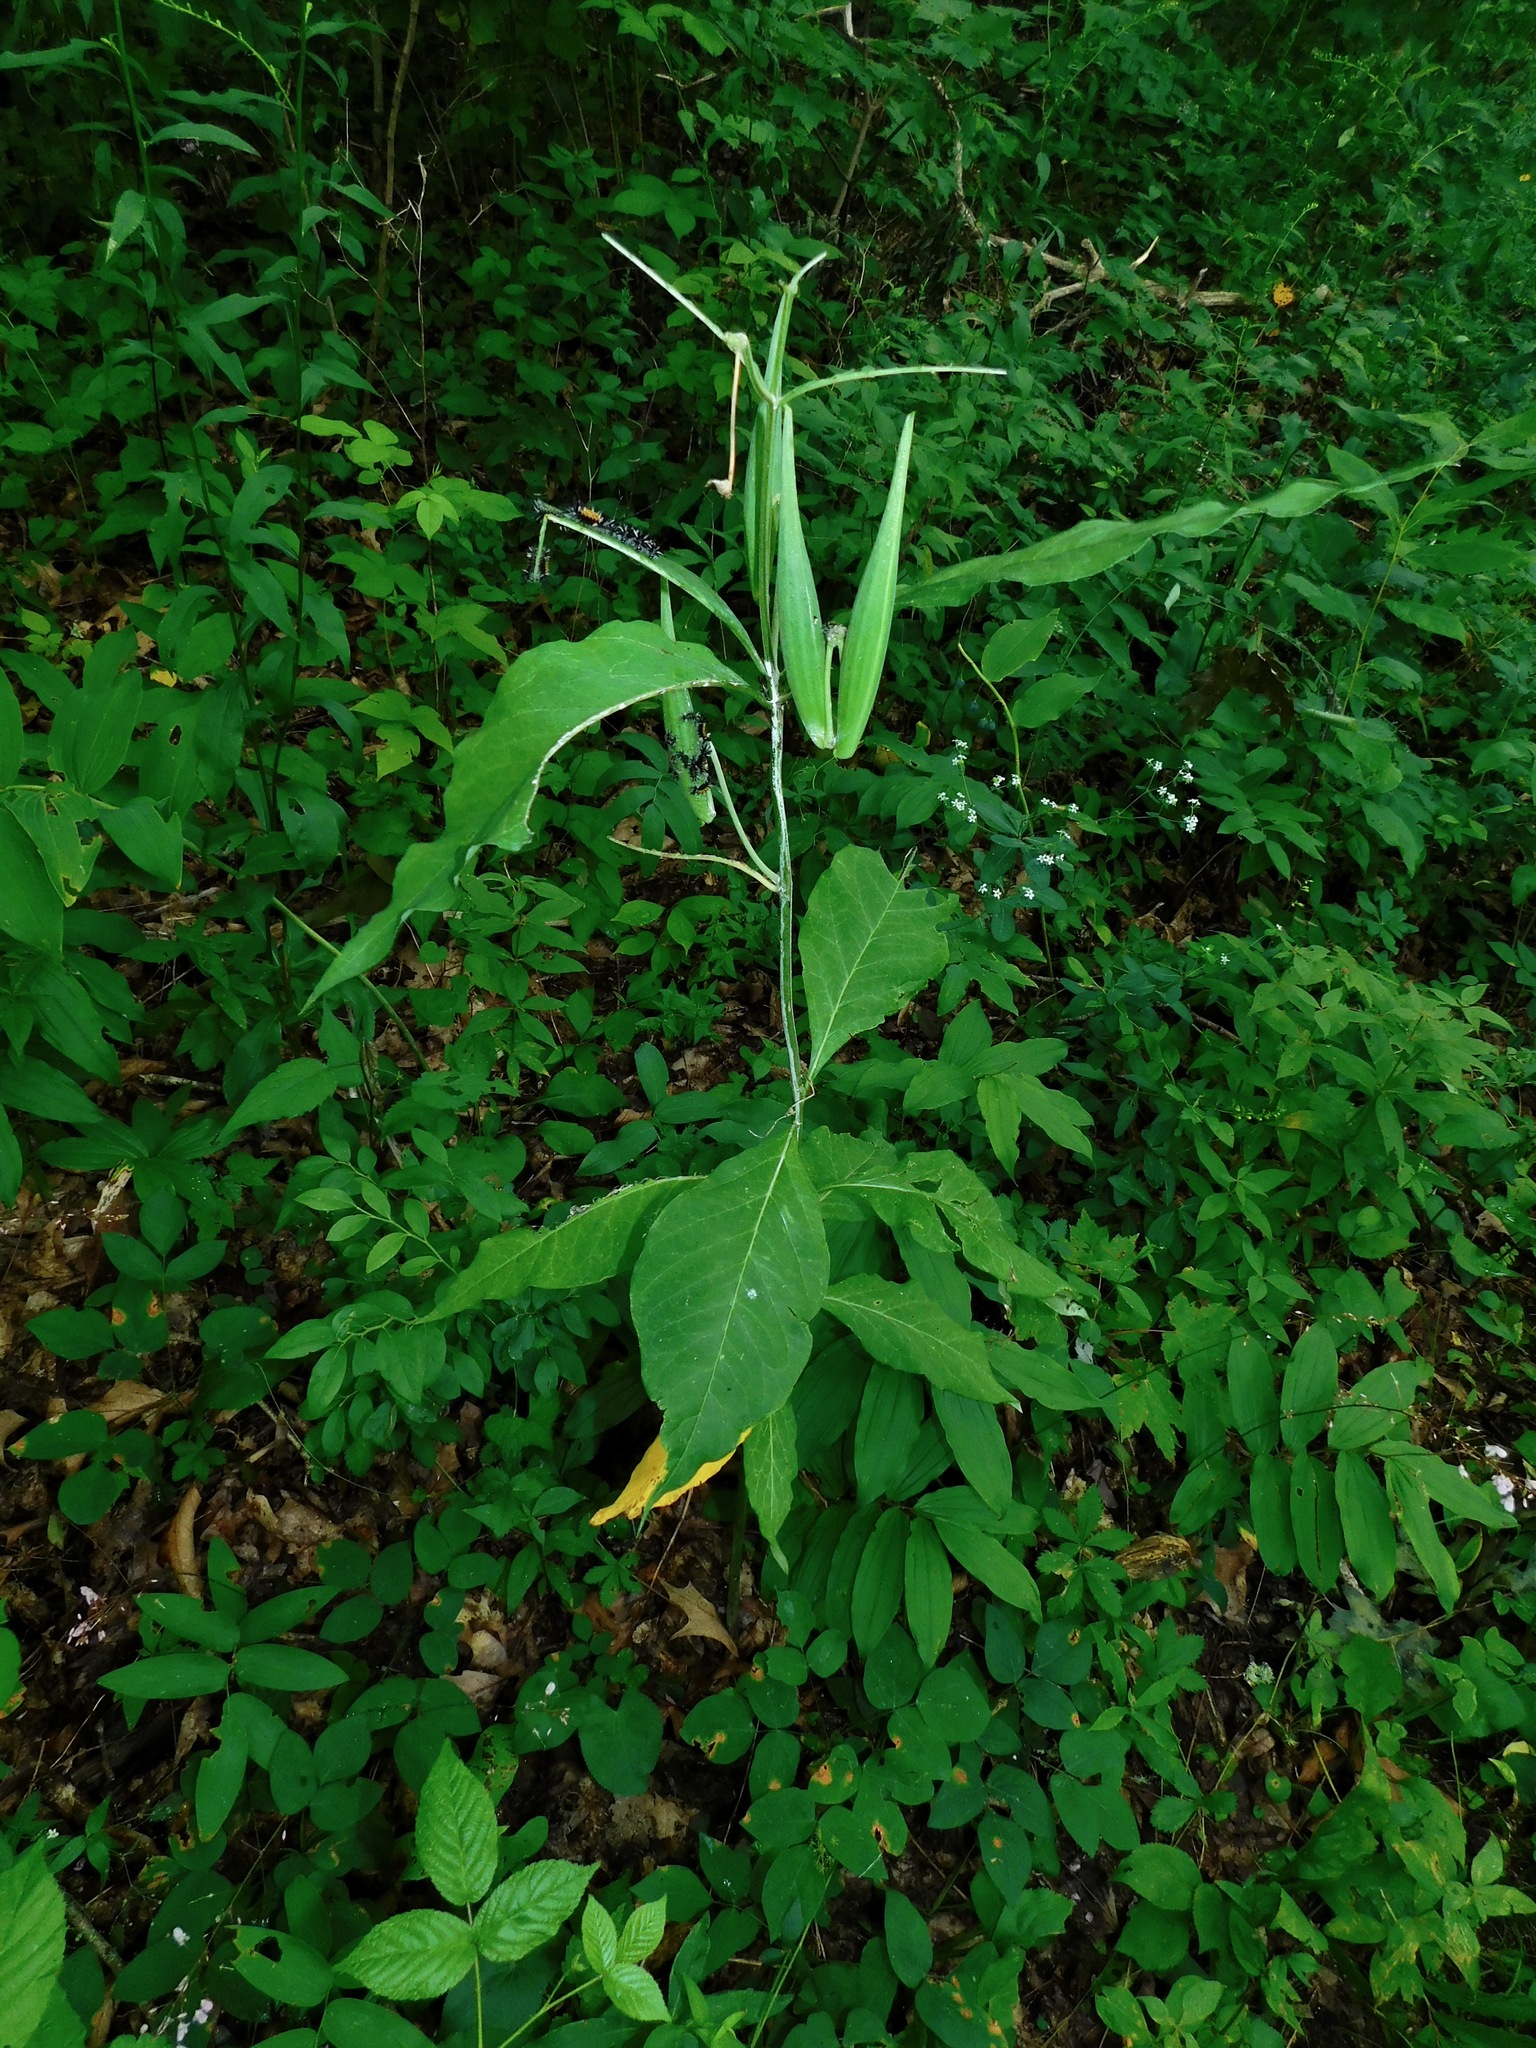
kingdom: Animalia
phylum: Arthropoda
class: Insecta
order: Lepidoptera
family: Erebidae
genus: Euchaetes
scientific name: Euchaetes egle
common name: Milkweed tussock moth
